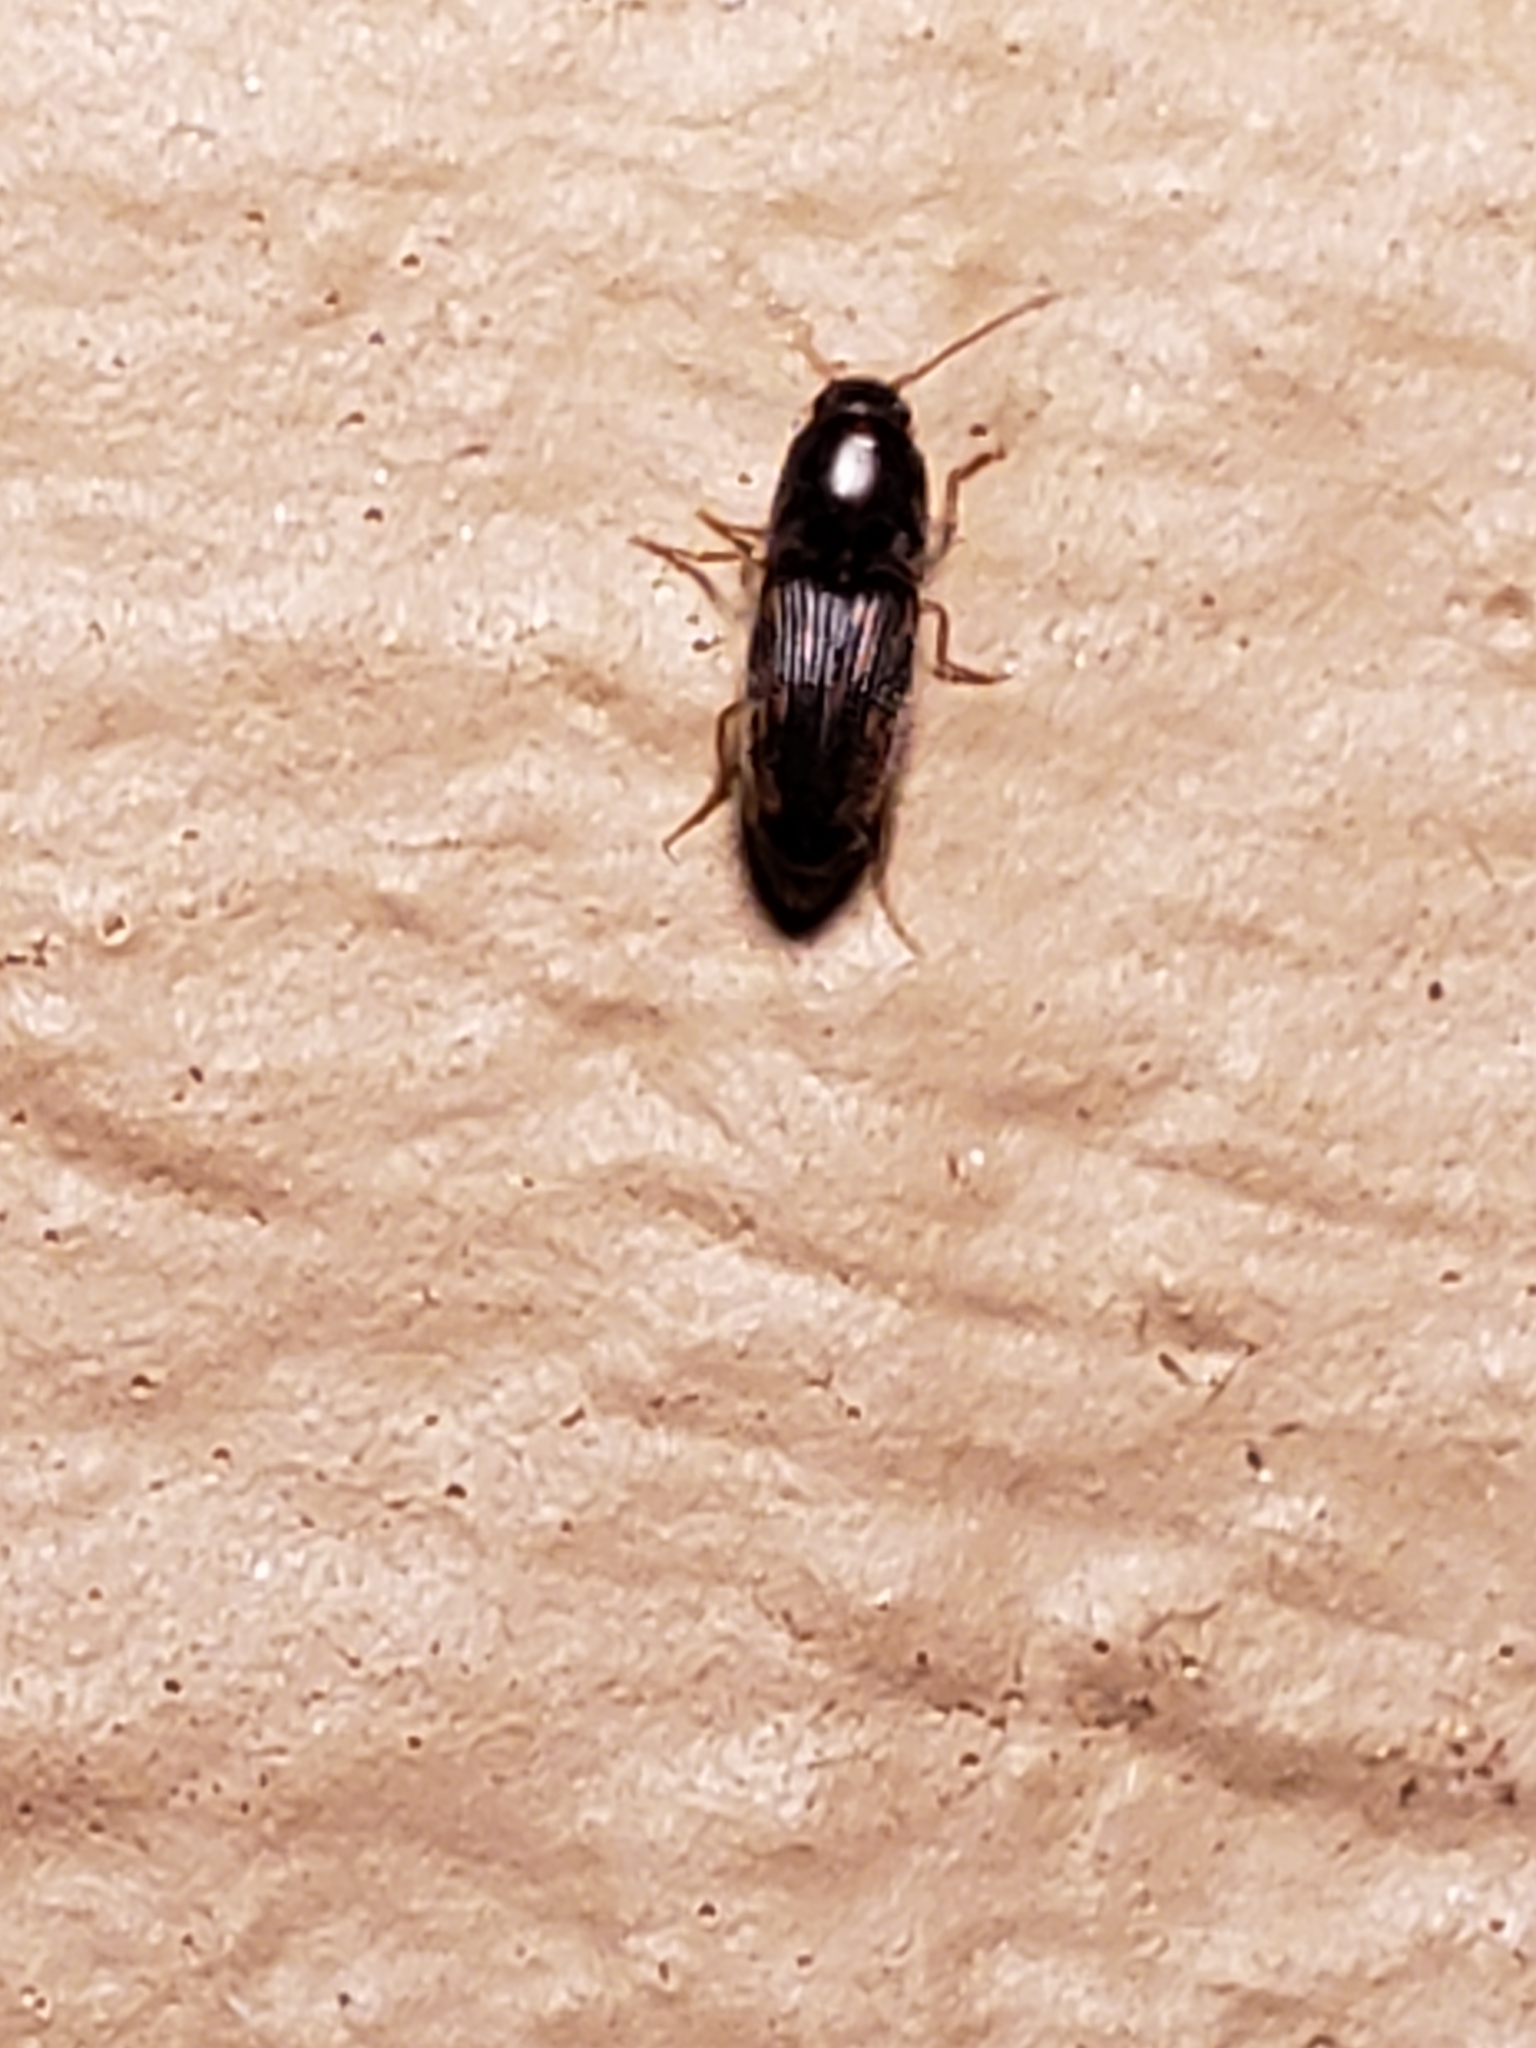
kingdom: Animalia
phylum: Arthropoda
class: Insecta
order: Coleoptera
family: Elateridae
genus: Monocrepidius
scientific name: Monocrepidius bellus
